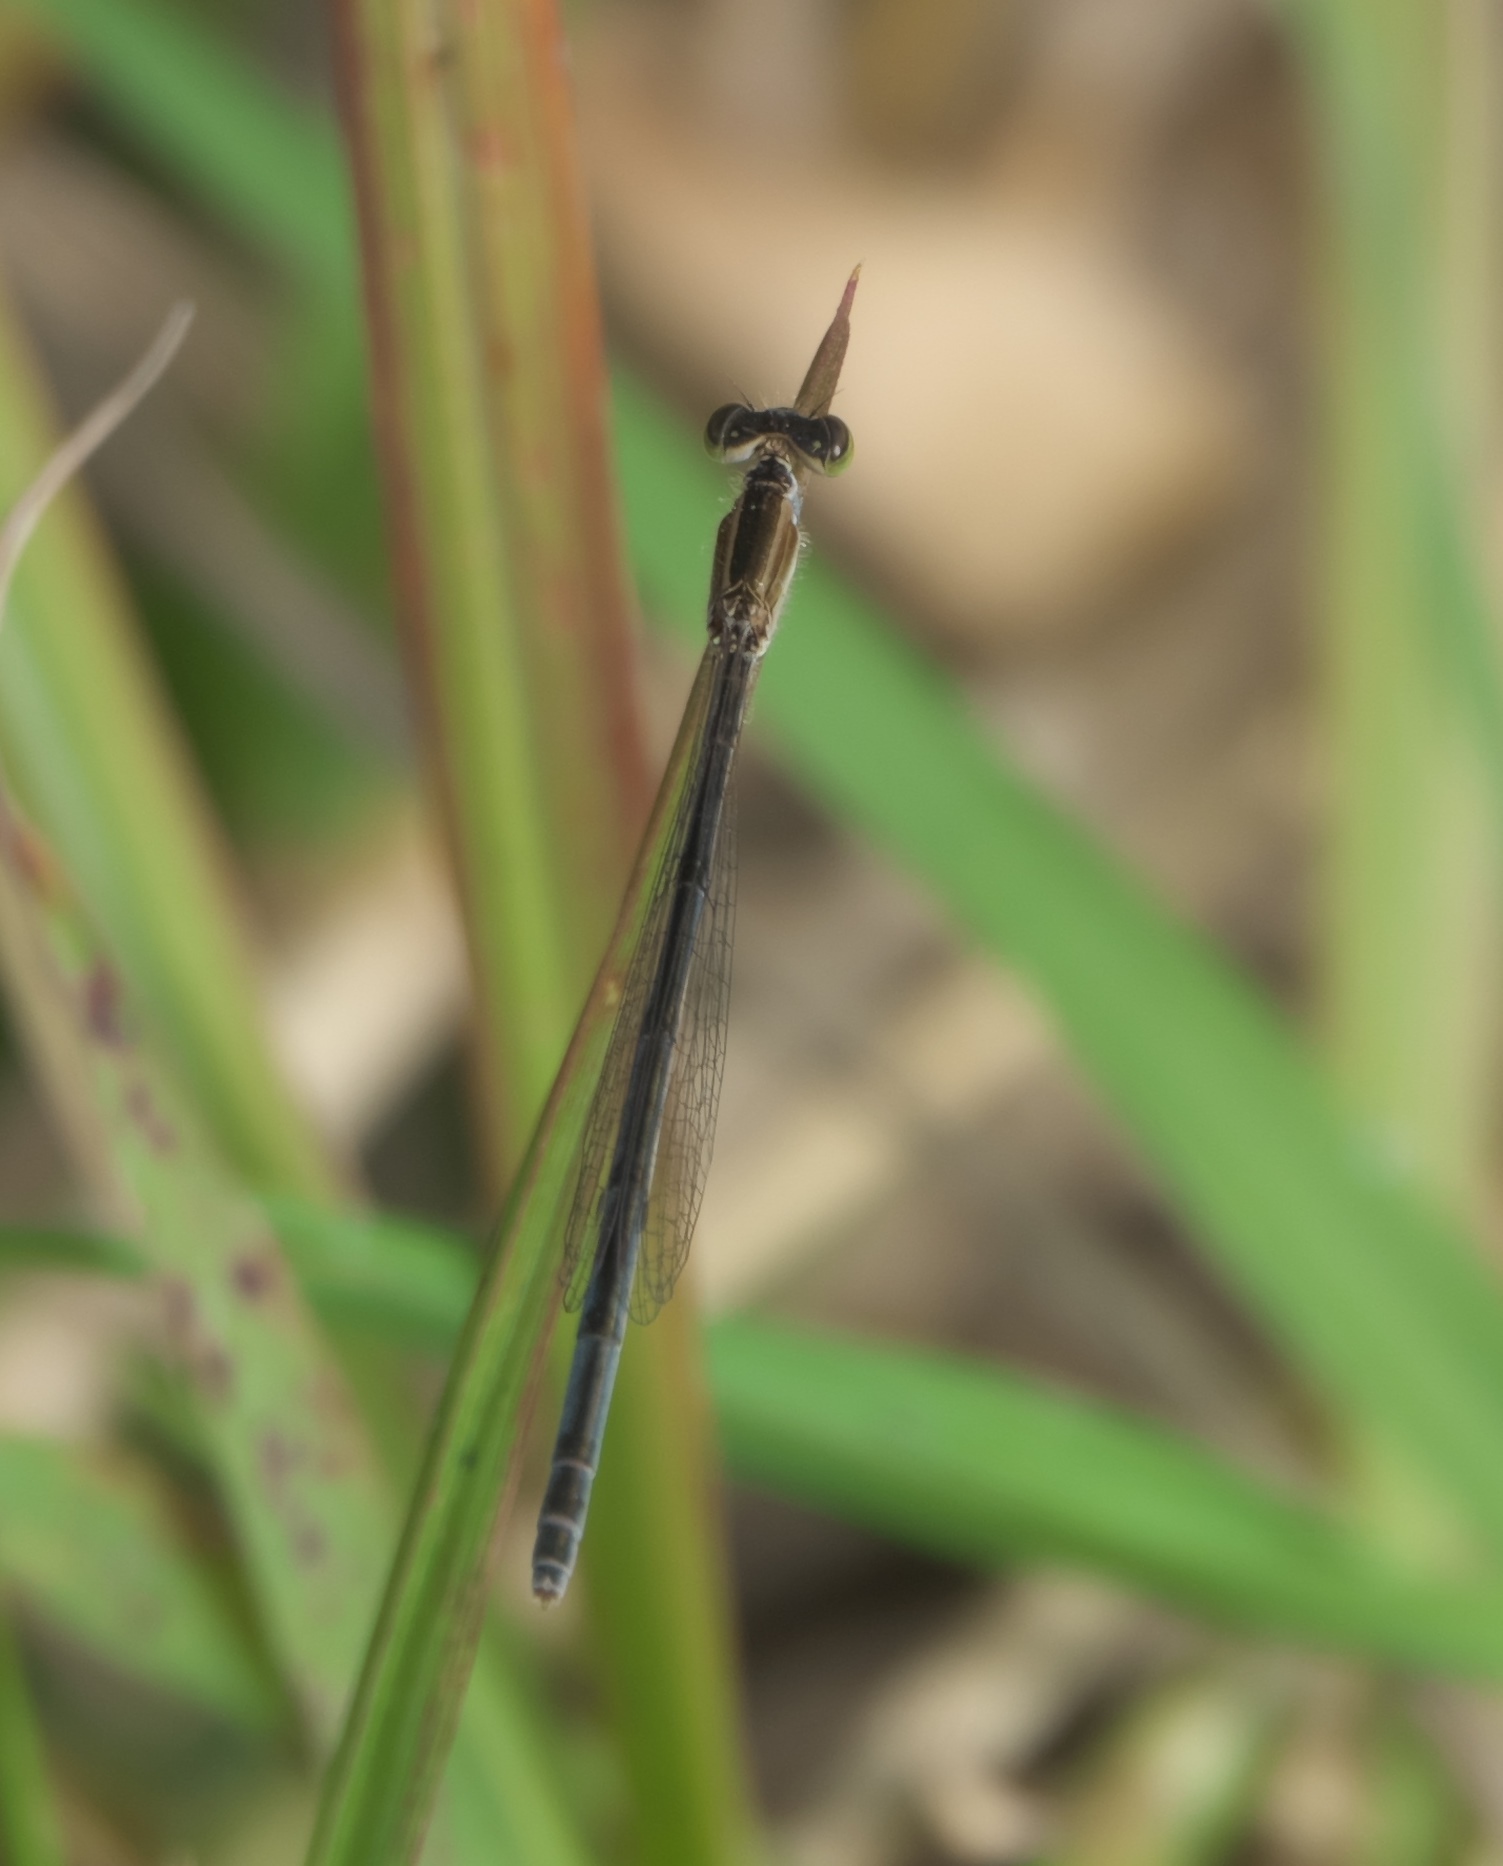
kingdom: Animalia
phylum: Arthropoda
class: Insecta
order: Odonata
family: Coenagrionidae
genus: Ischnura
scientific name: Ischnura hastata
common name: Citrine forktail
